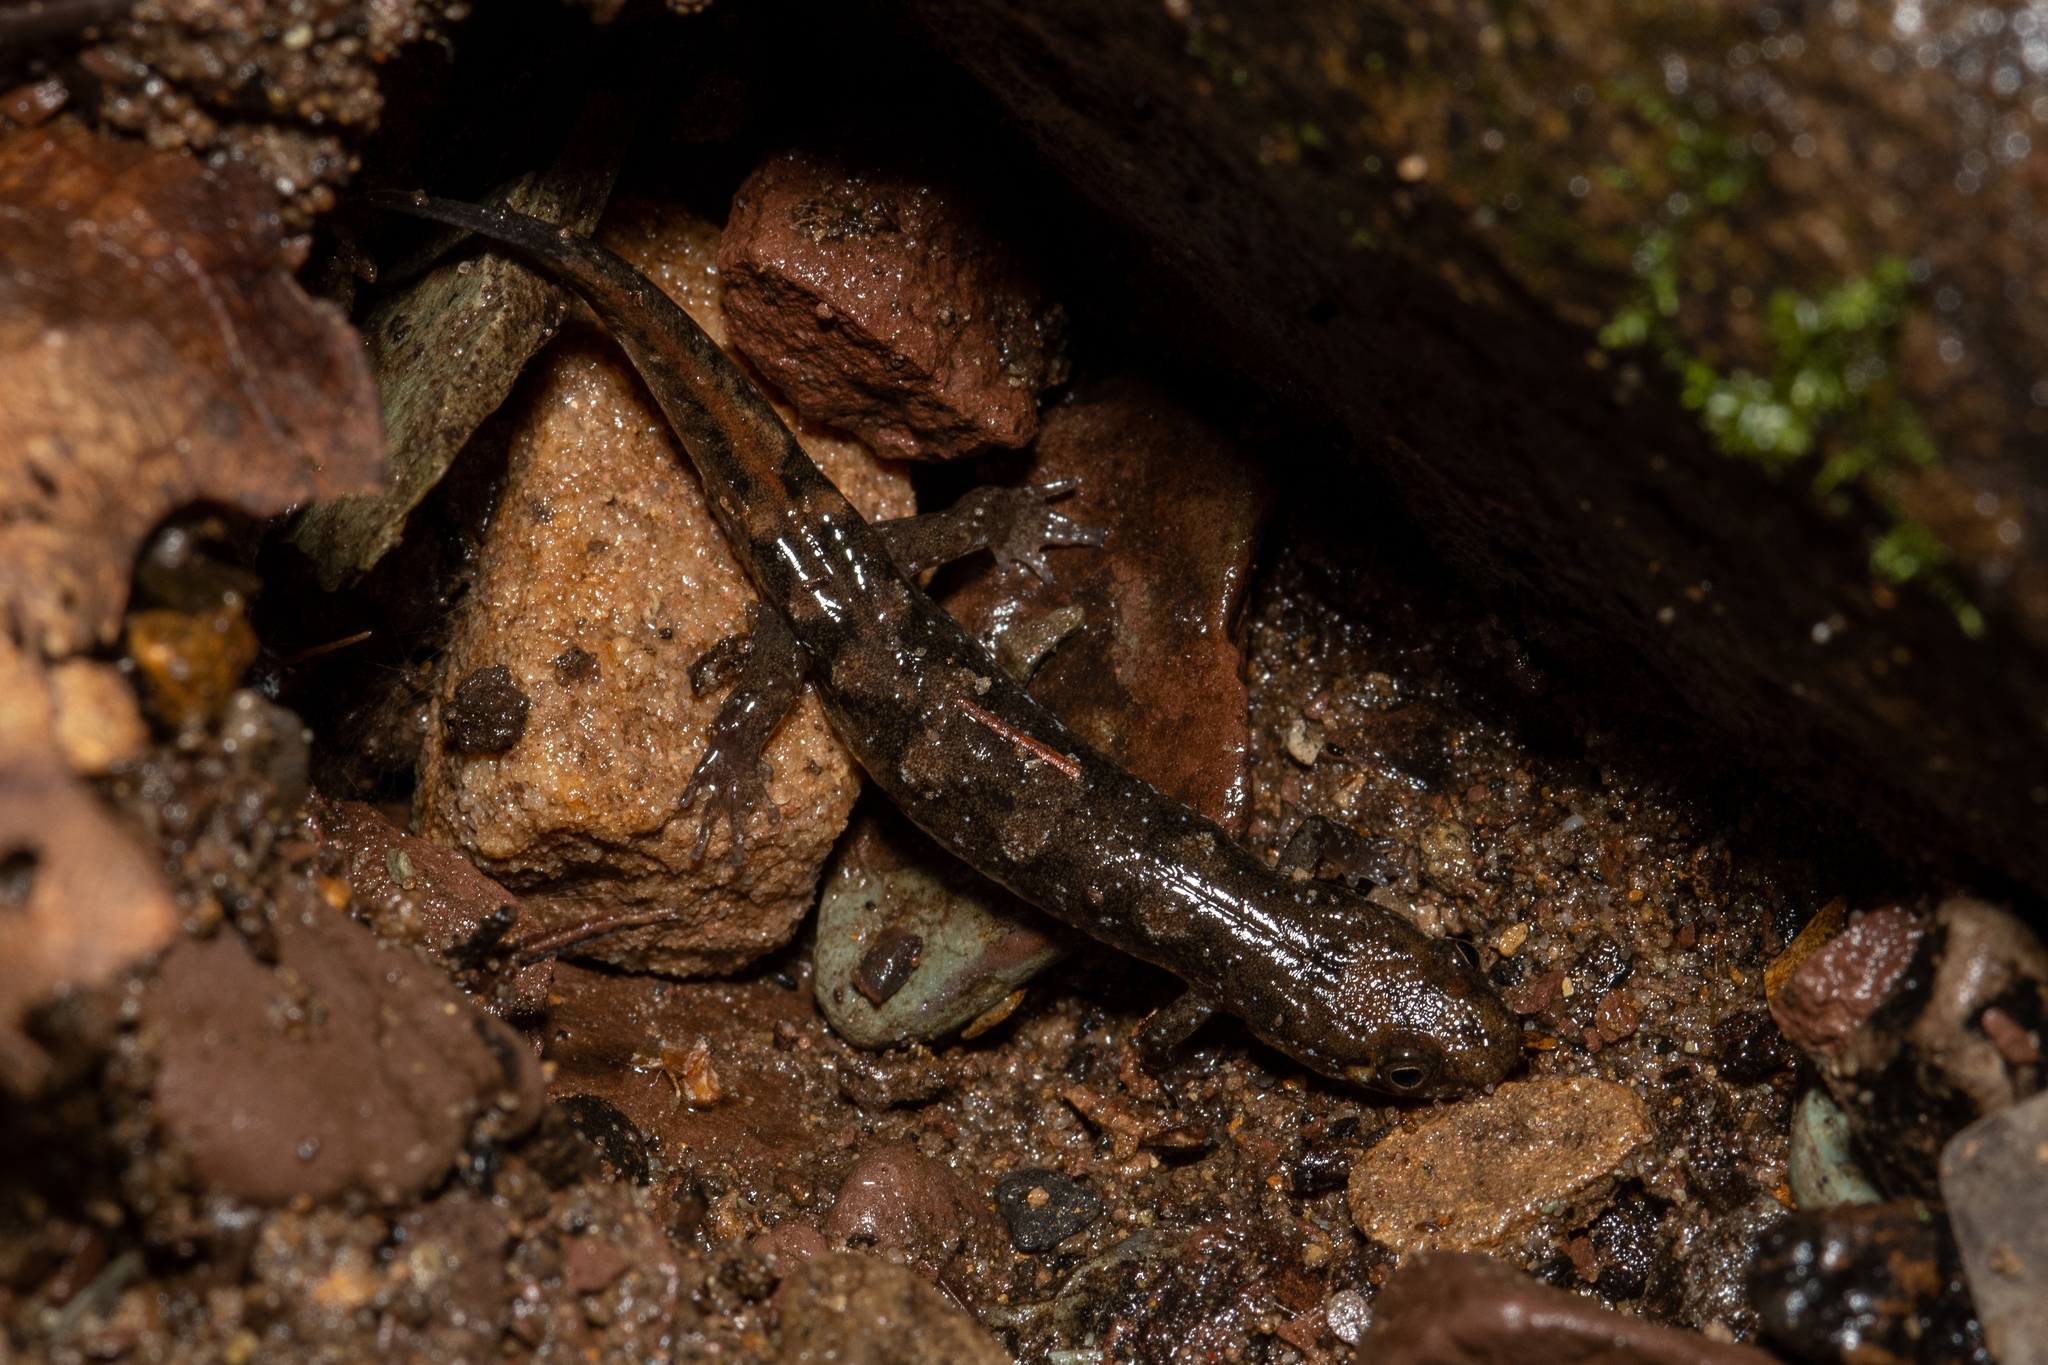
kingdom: Animalia
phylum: Chordata
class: Amphibia
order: Caudata
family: Plethodontidae
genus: Desmognathus
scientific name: Desmognathus monticola
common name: Seal salamander
